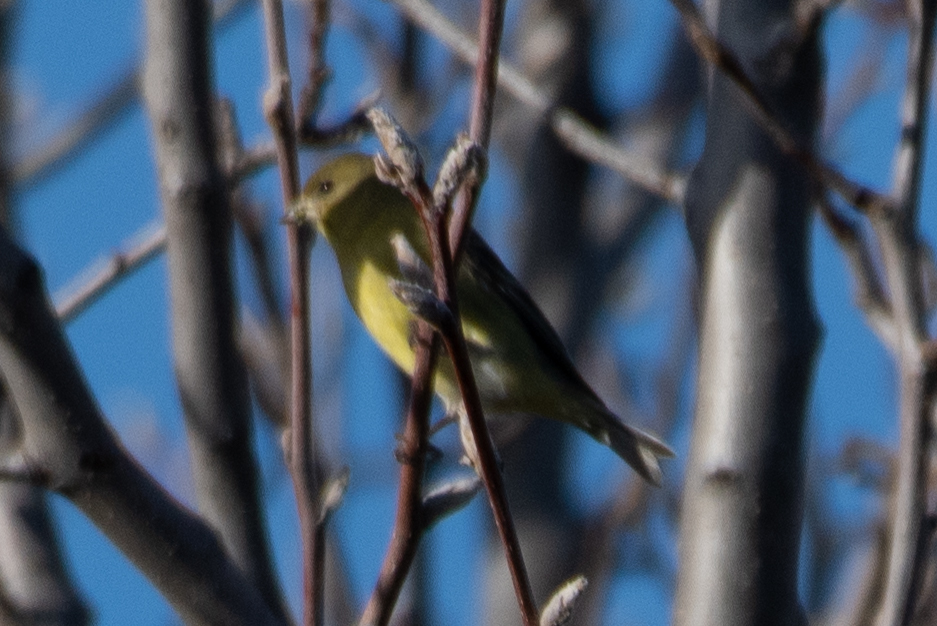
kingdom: Animalia
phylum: Chordata
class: Aves
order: Passeriformes
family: Fringillidae
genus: Spinus
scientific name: Spinus psaltria
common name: Lesser goldfinch
